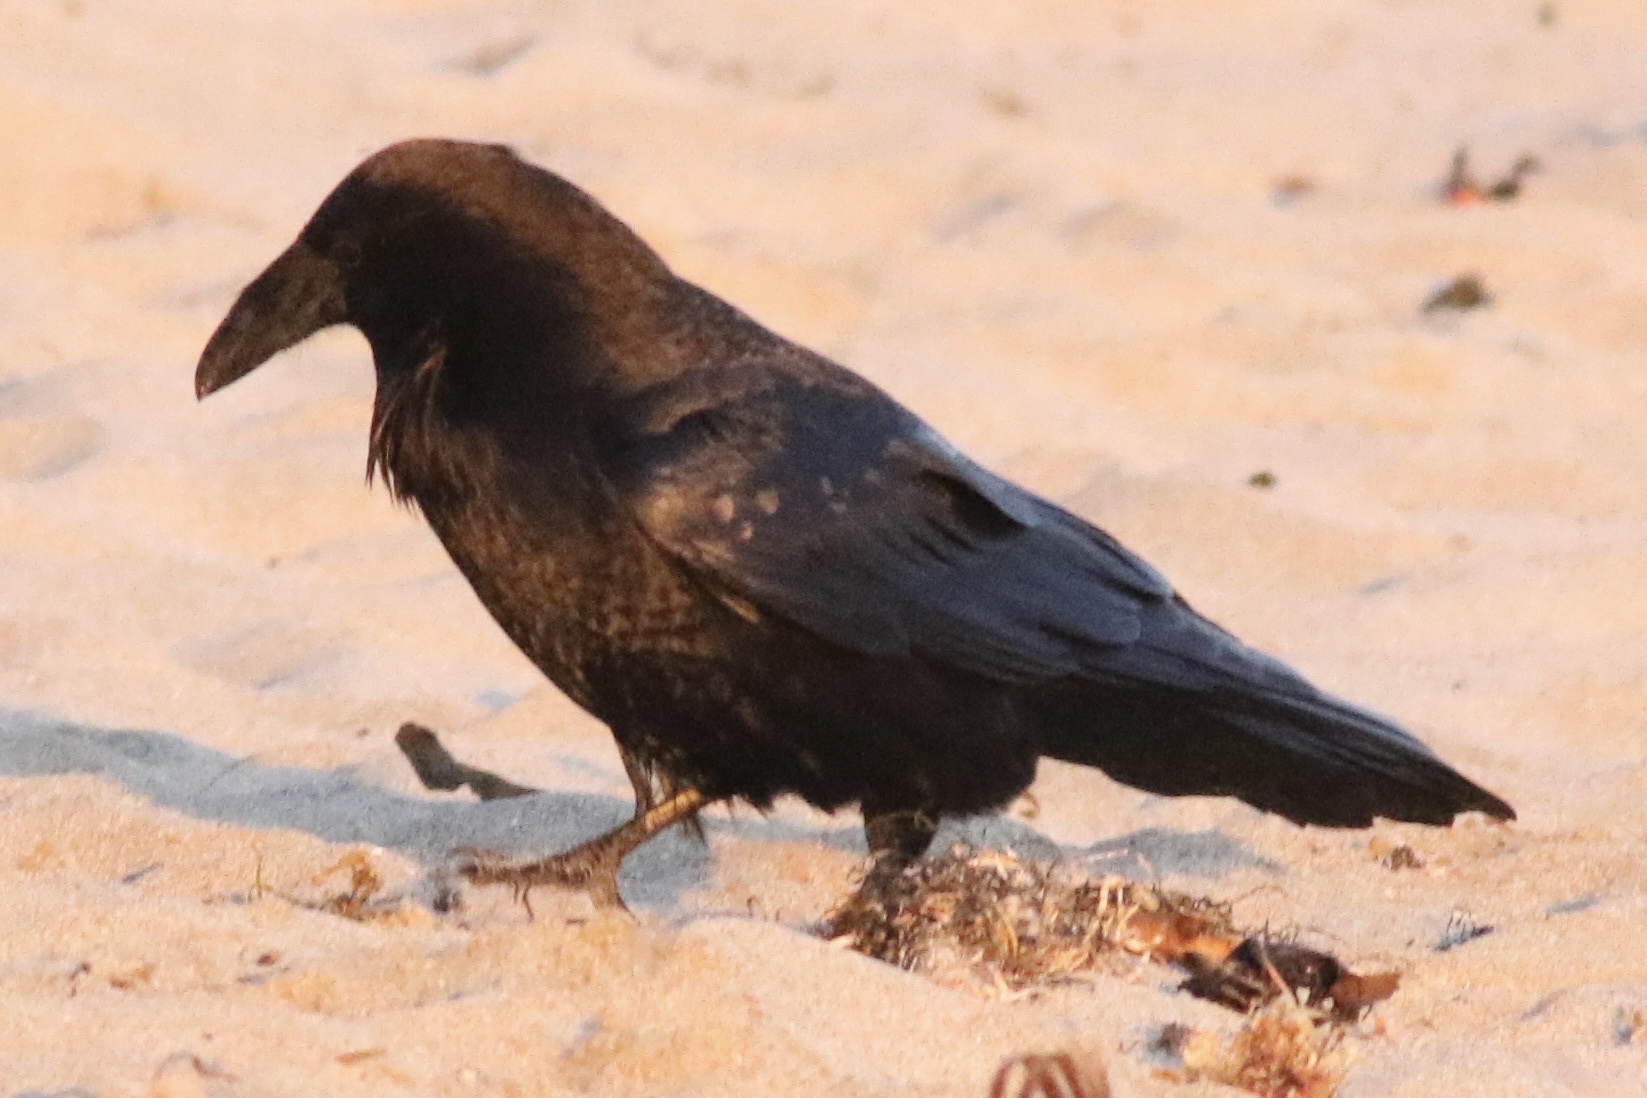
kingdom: Animalia
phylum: Chordata
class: Aves
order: Passeriformes
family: Corvidae
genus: Corvus
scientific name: Corvus corax
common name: Common raven
